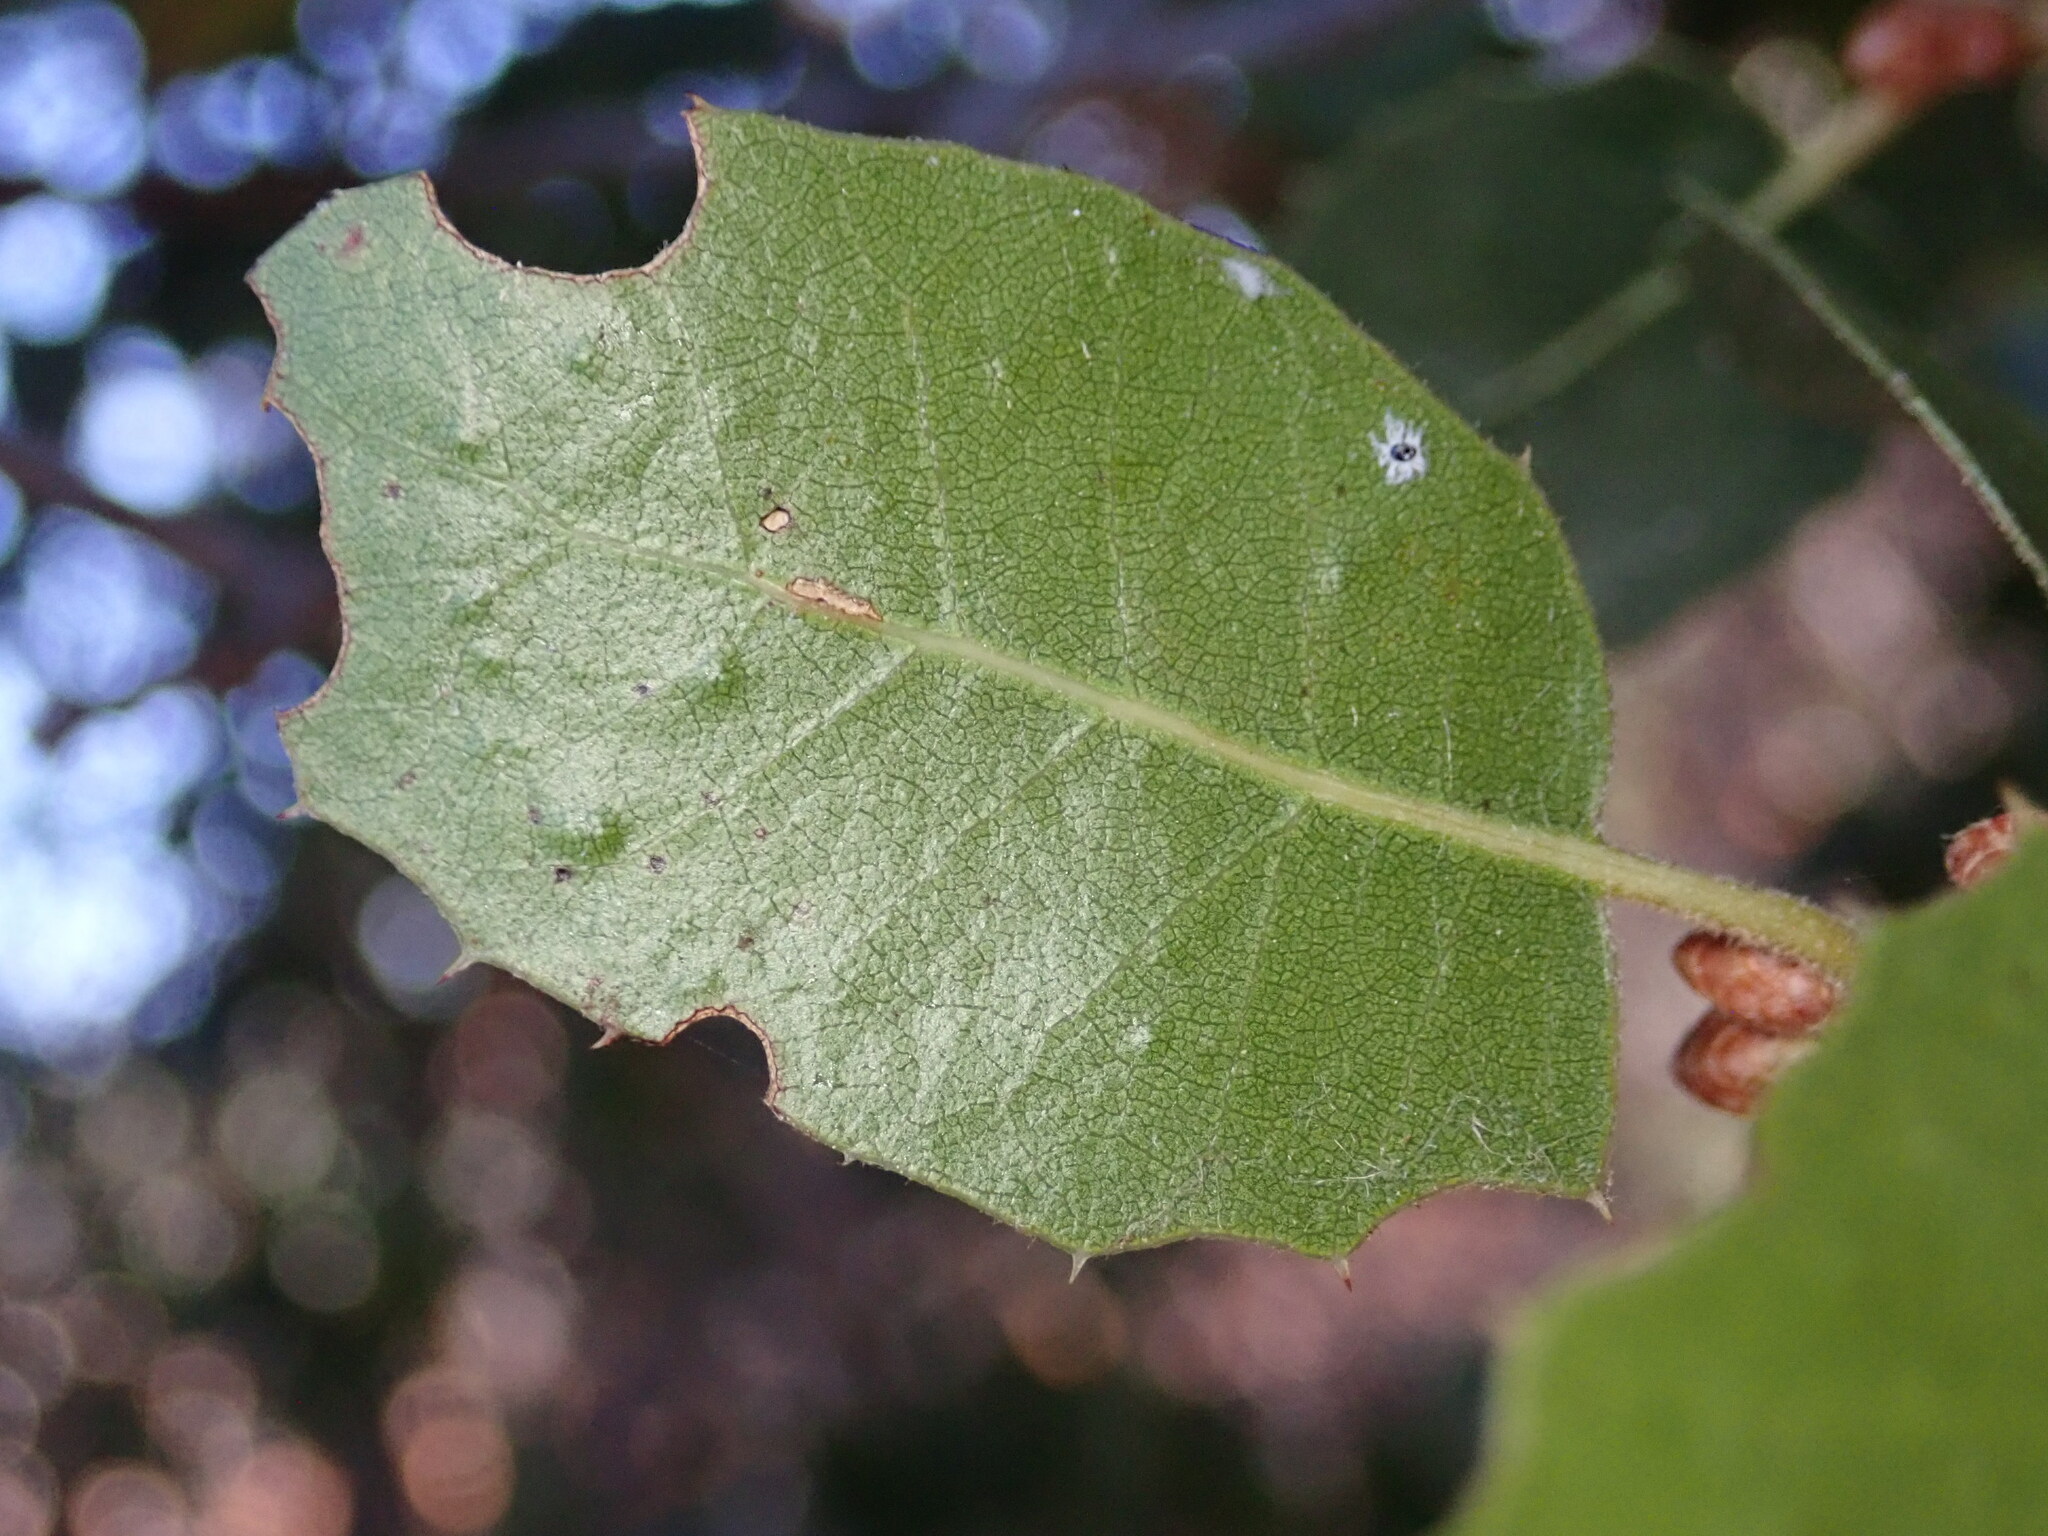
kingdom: Plantae
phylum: Tracheophyta
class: Magnoliopsida
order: Fagales
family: Fagaceae
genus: Quercus
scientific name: Quercus wislizeni
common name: Interior live oak
